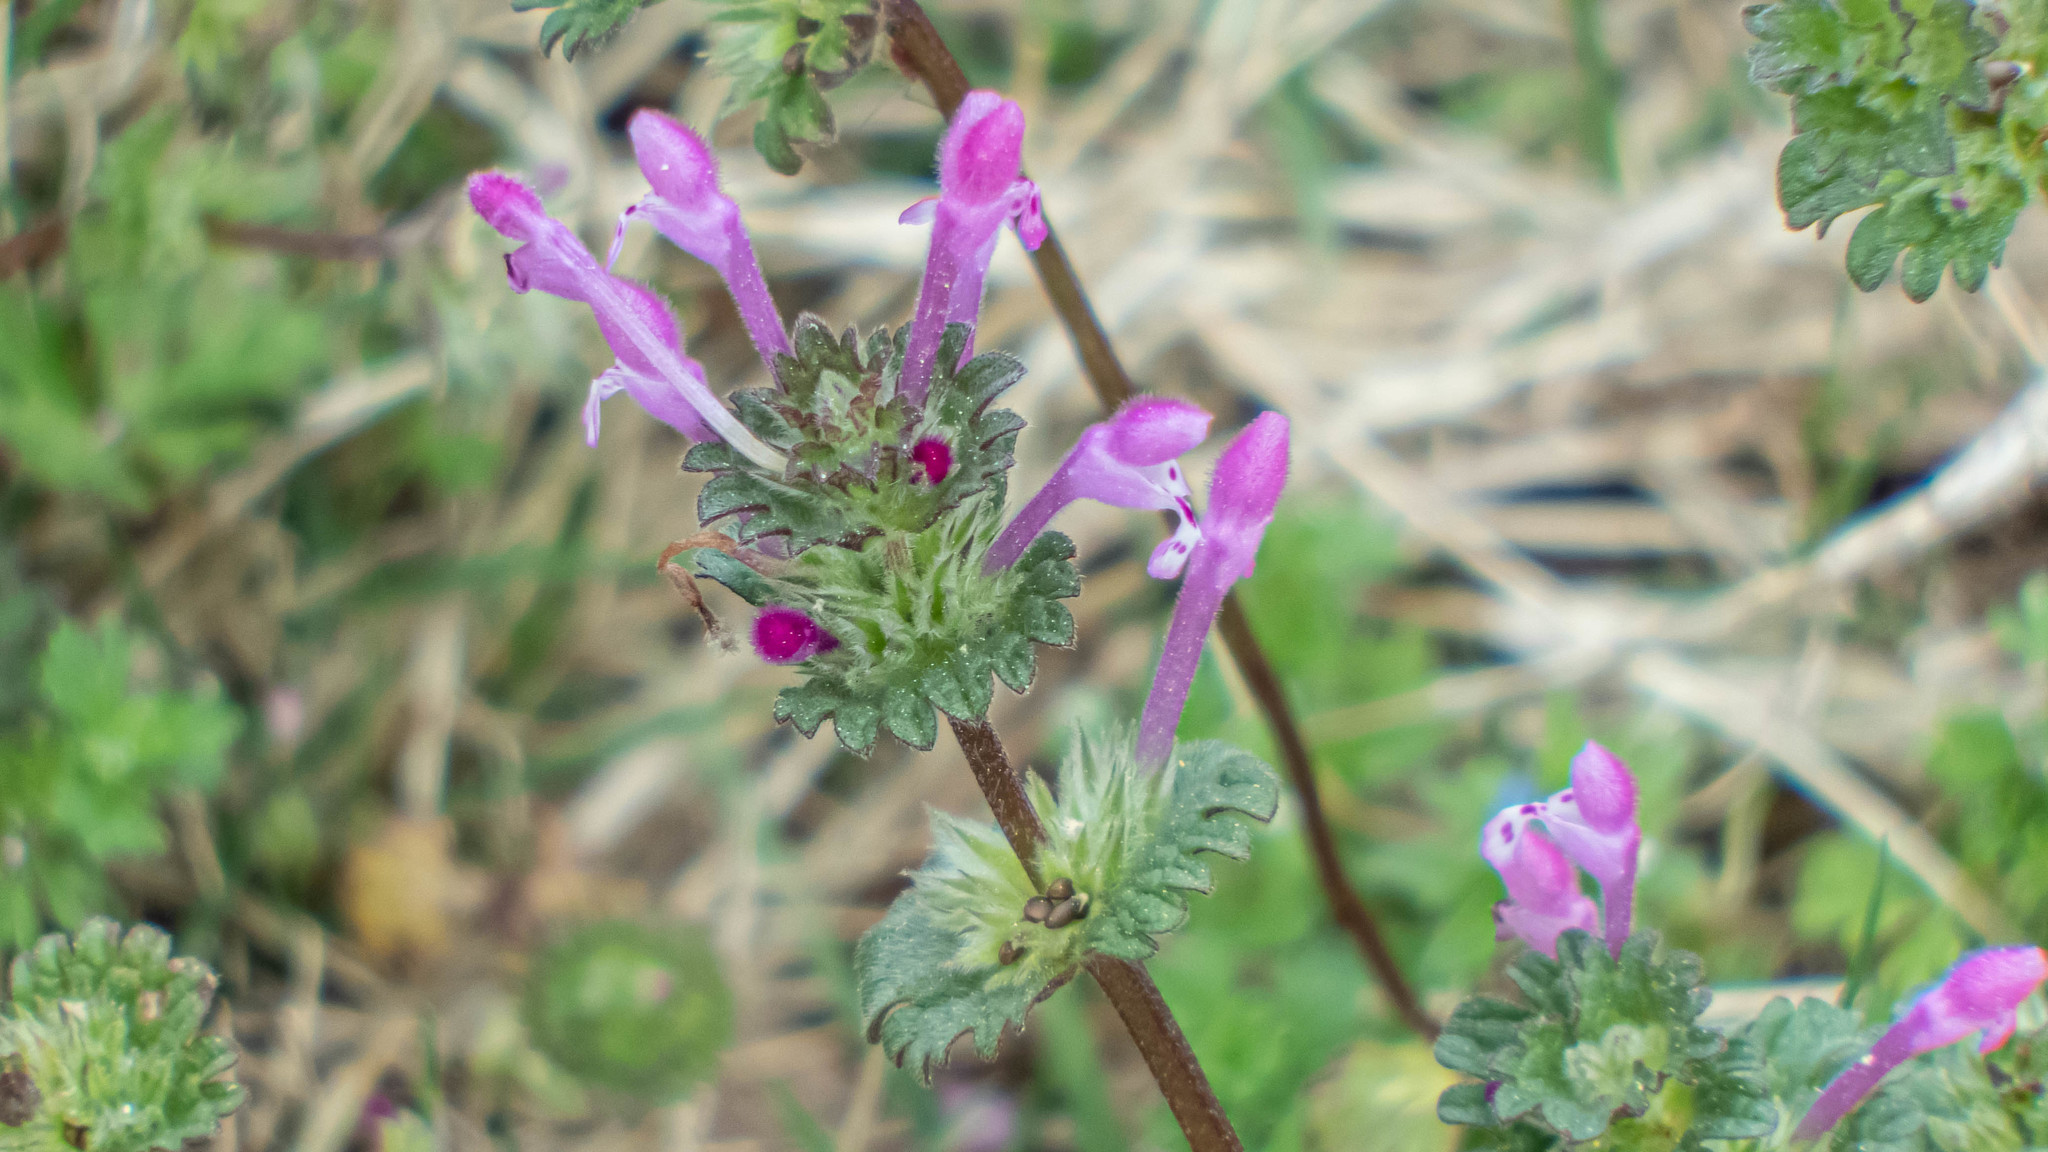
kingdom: Plantae
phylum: Tracheophyta
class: Magnoliopsida
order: Lamiales
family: Lamiaceae
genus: Lamium
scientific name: Lamium amplexicaule
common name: Henbit dead-nettle
